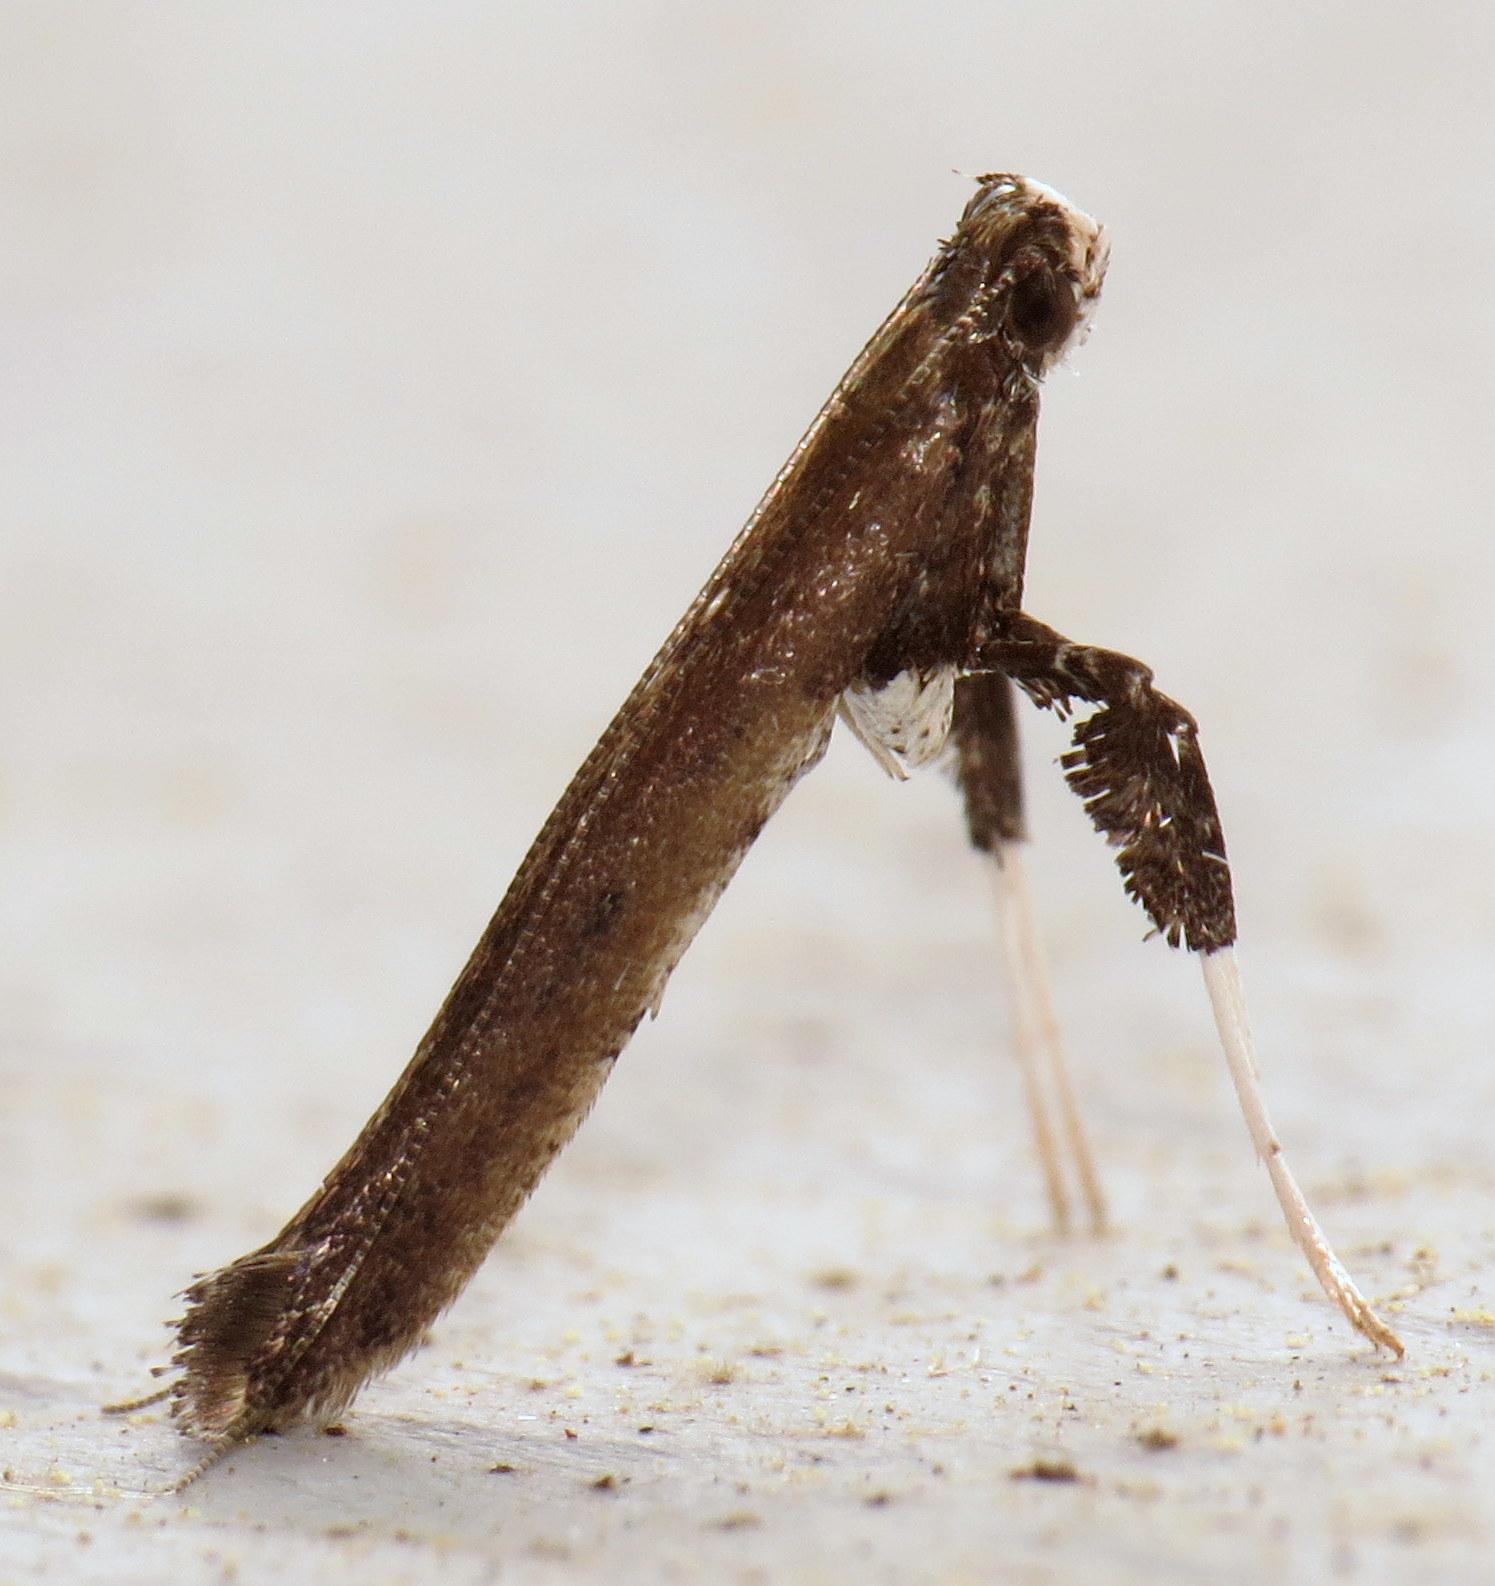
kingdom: Animalia
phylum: Arthropoda
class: Insecta
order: Lepidoptera
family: Gracillariidae
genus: Caloptilia
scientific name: Caloptilia rhoifoliella
